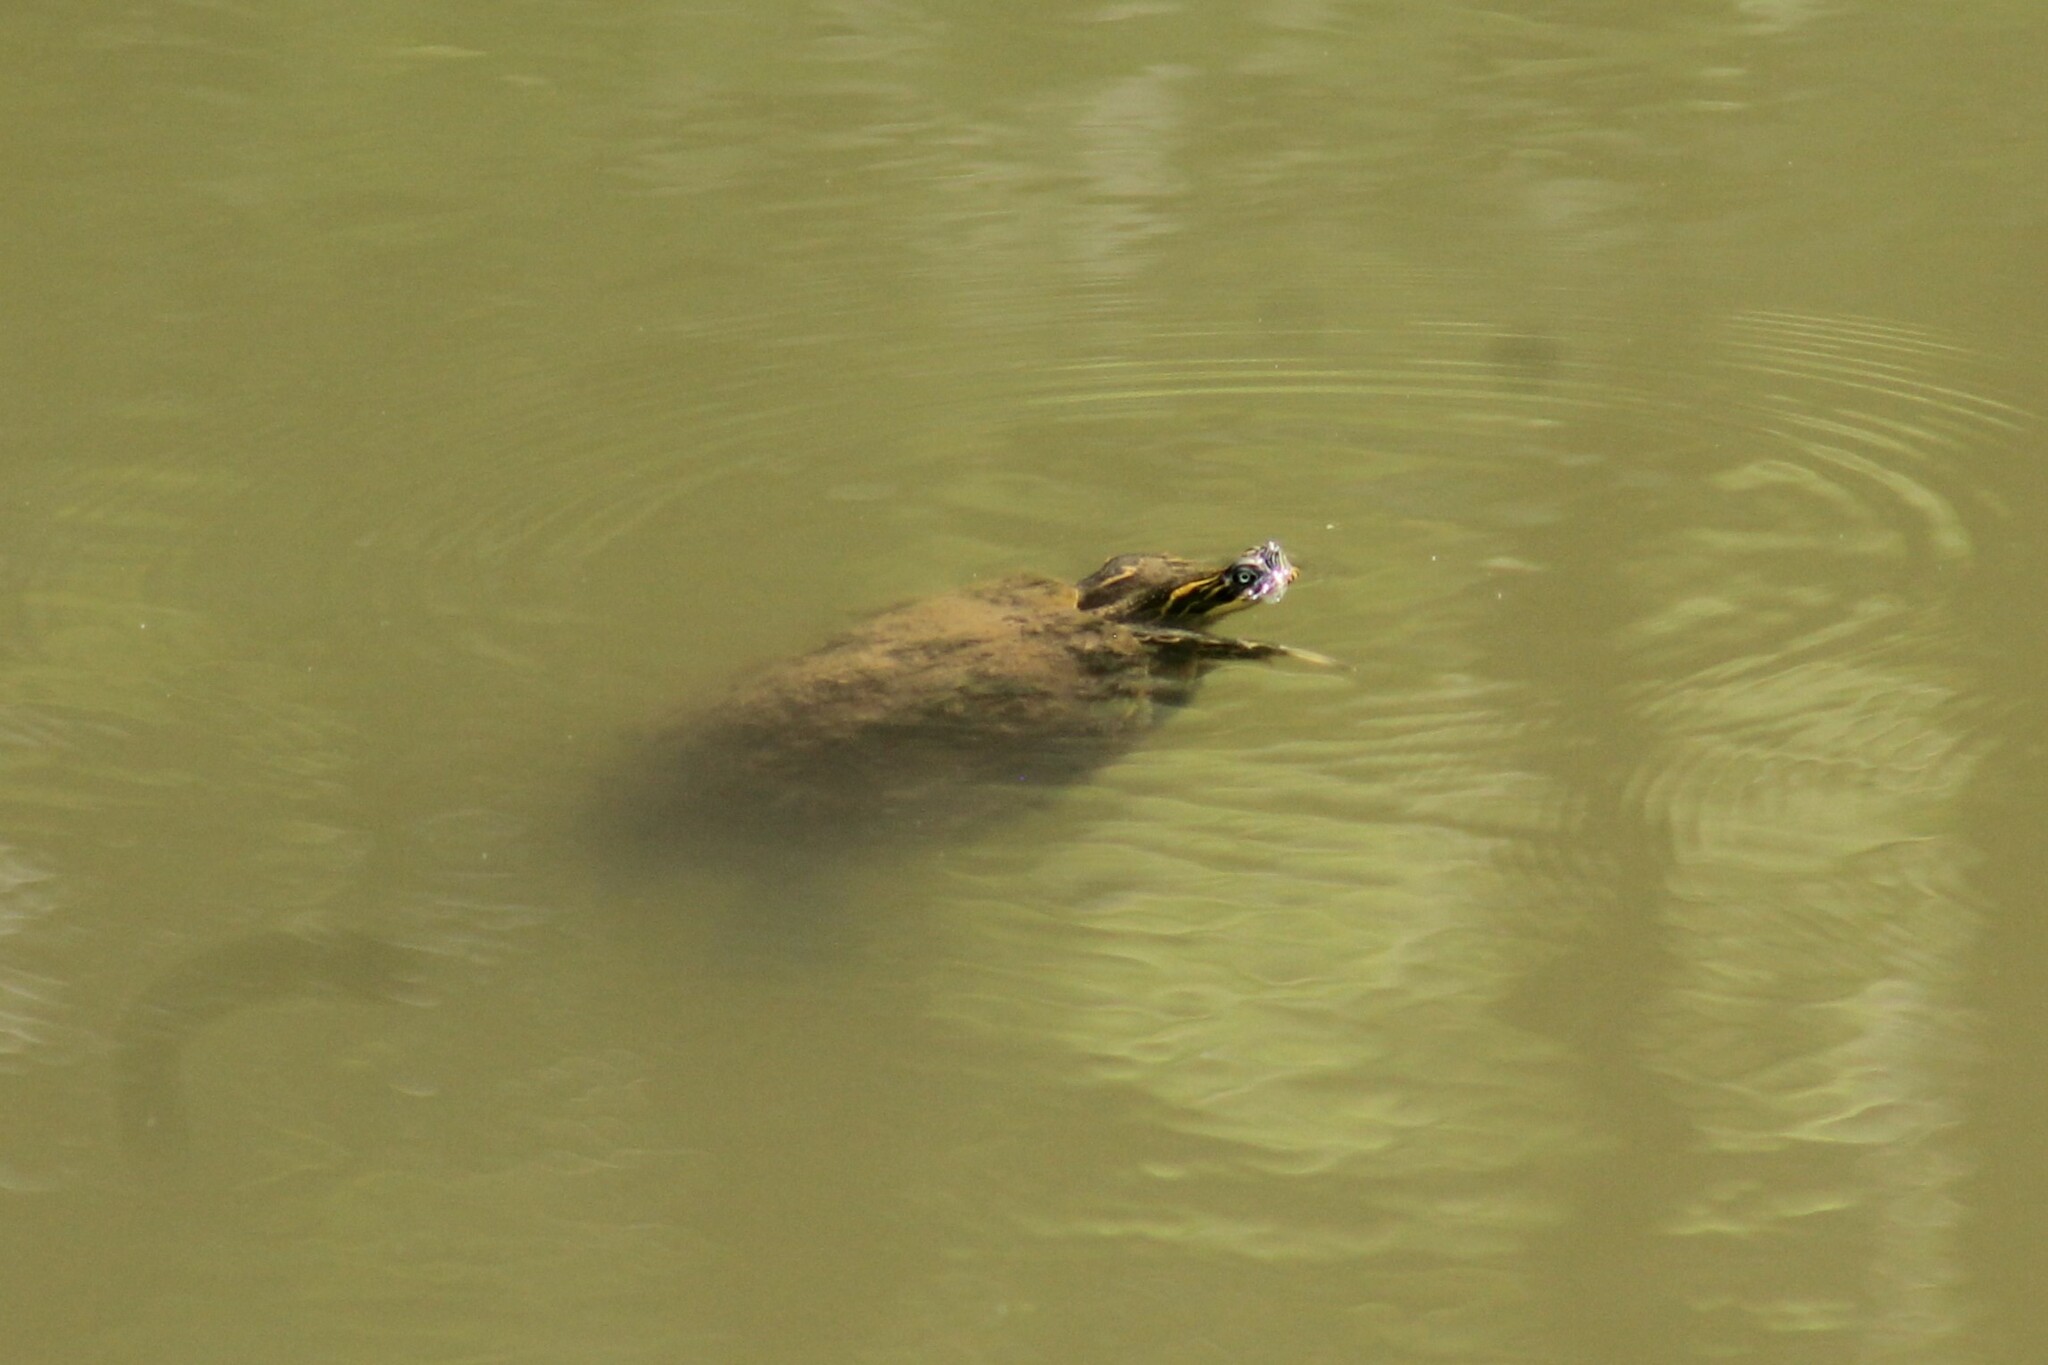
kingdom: Animalia
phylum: Chordata
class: Testudines
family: Emydidae
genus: Pseudemys
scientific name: Pseudemys concinna
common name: Eastern river cooter
